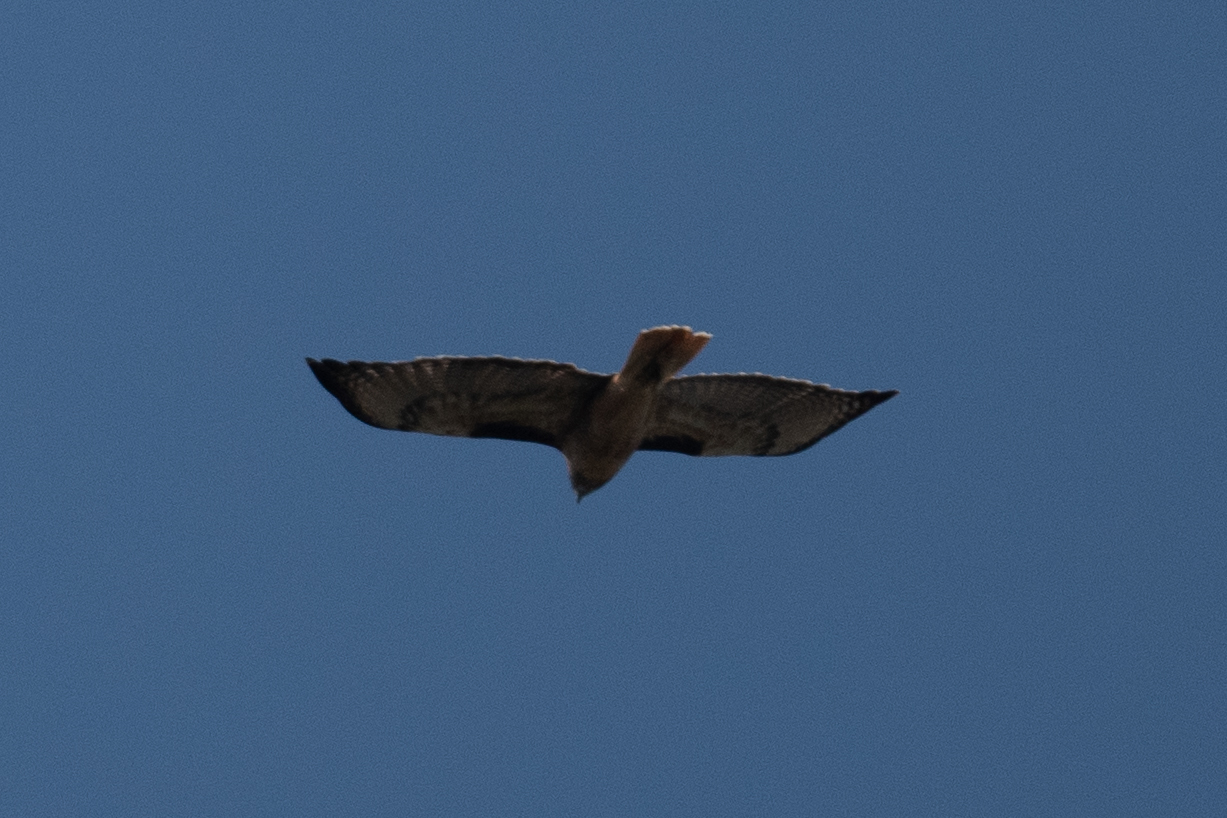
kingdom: Animalia
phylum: Chordata
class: Aves
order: Accipitriformes
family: Accipitridae
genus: Buteo
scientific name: Buteo jamaicensis
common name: Red-tailed hawk
